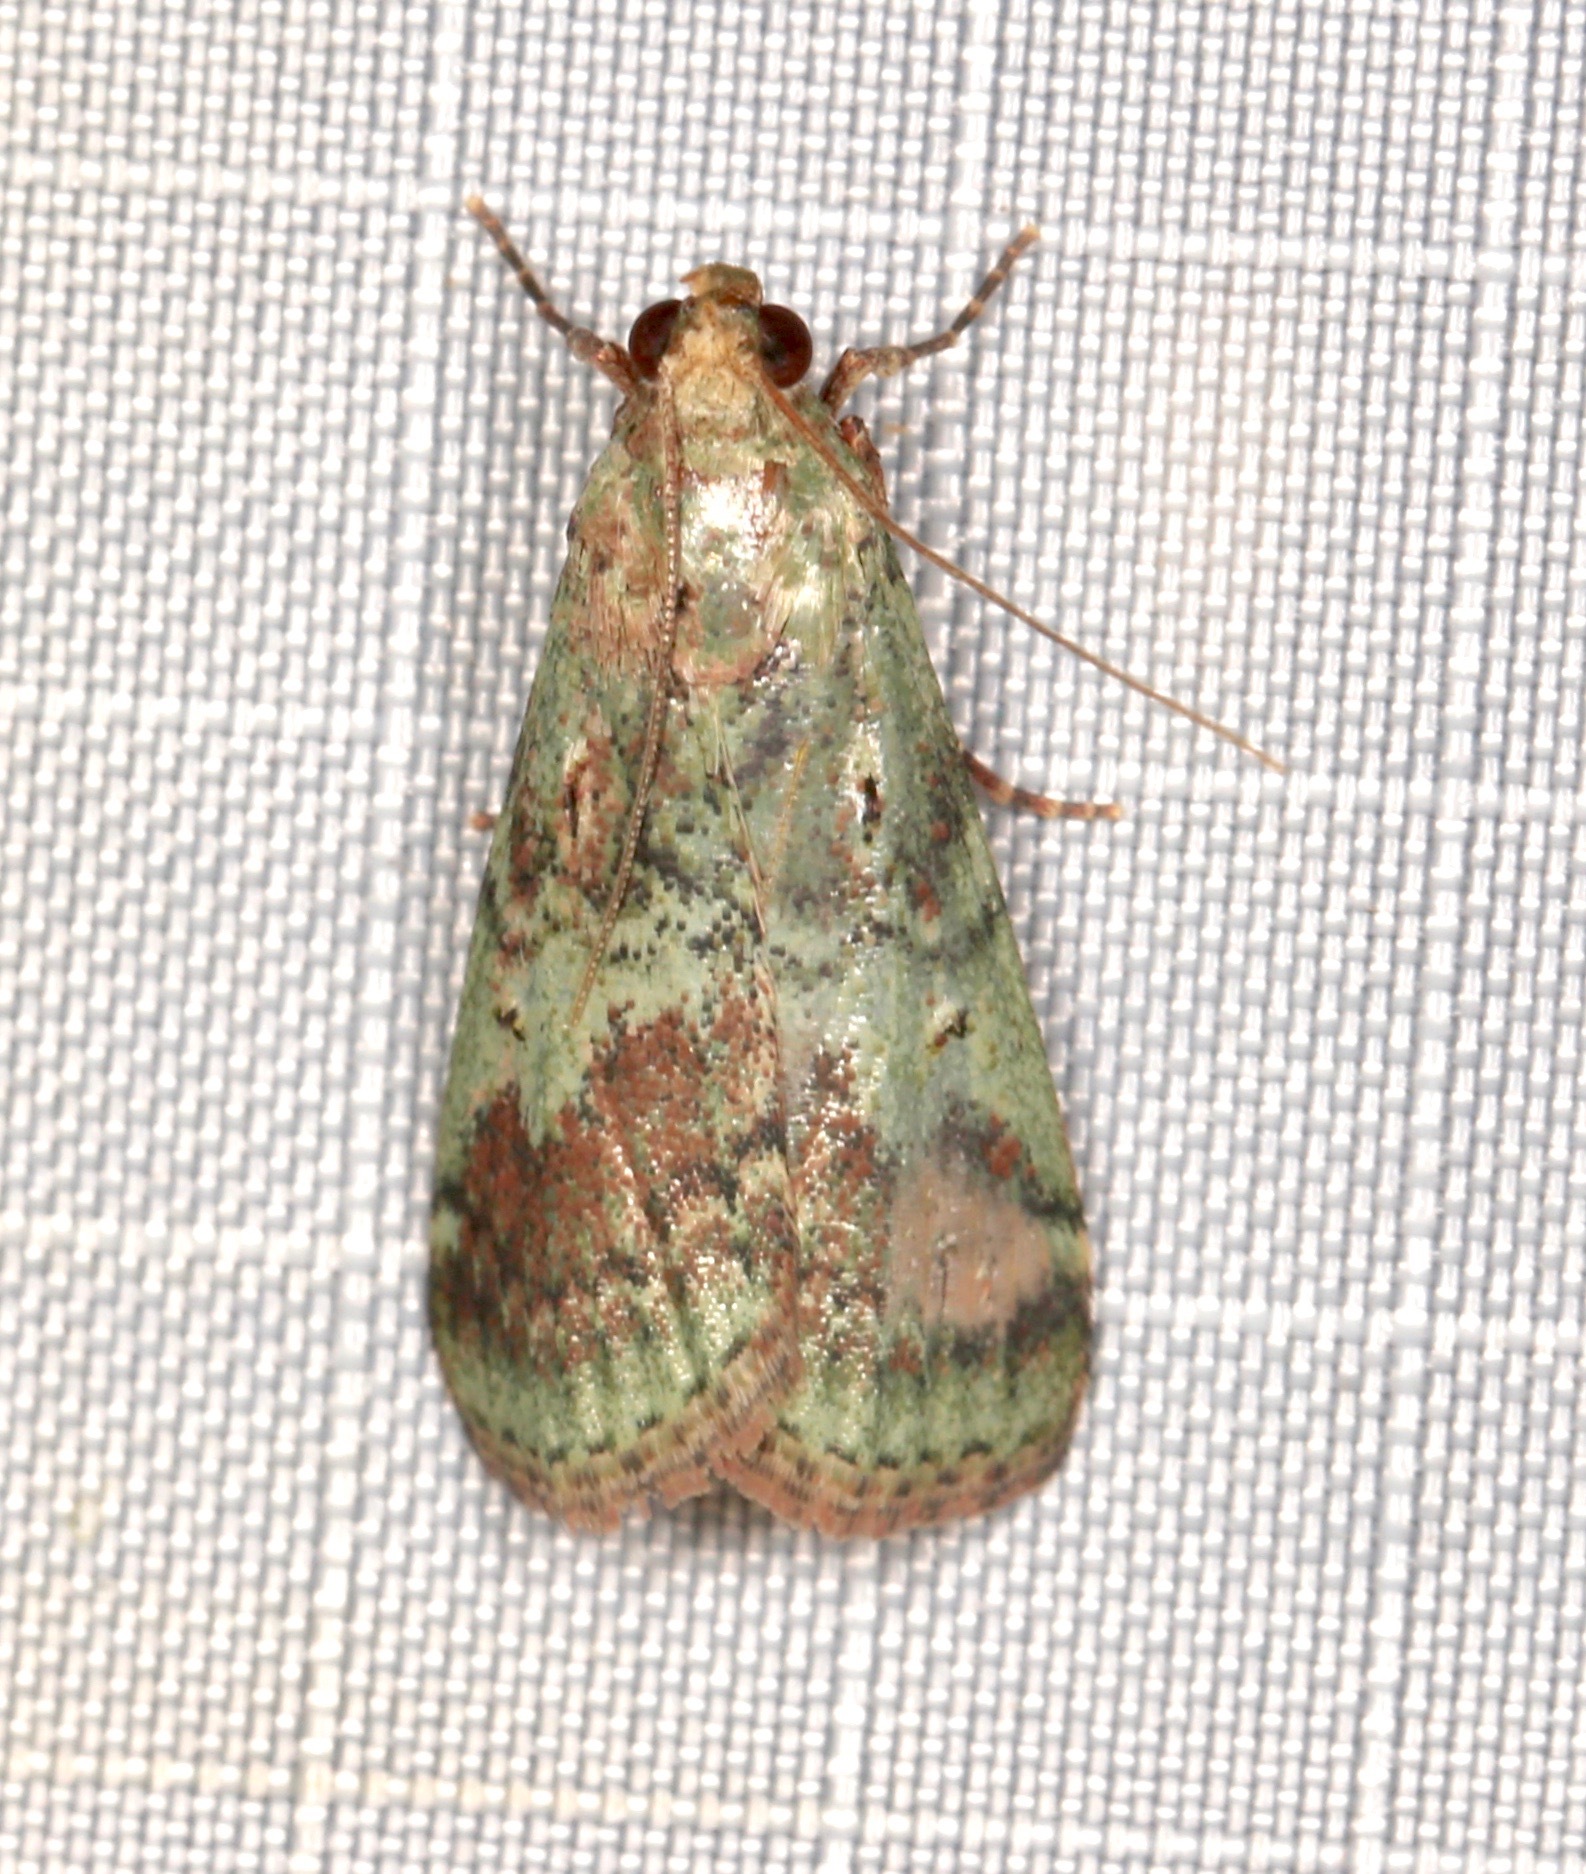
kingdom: Animalia
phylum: Arthropoda
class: Insecta
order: Lepidoptera
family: Pyralidae
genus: Deuterollyta
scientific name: Deuterollyta majuscula
